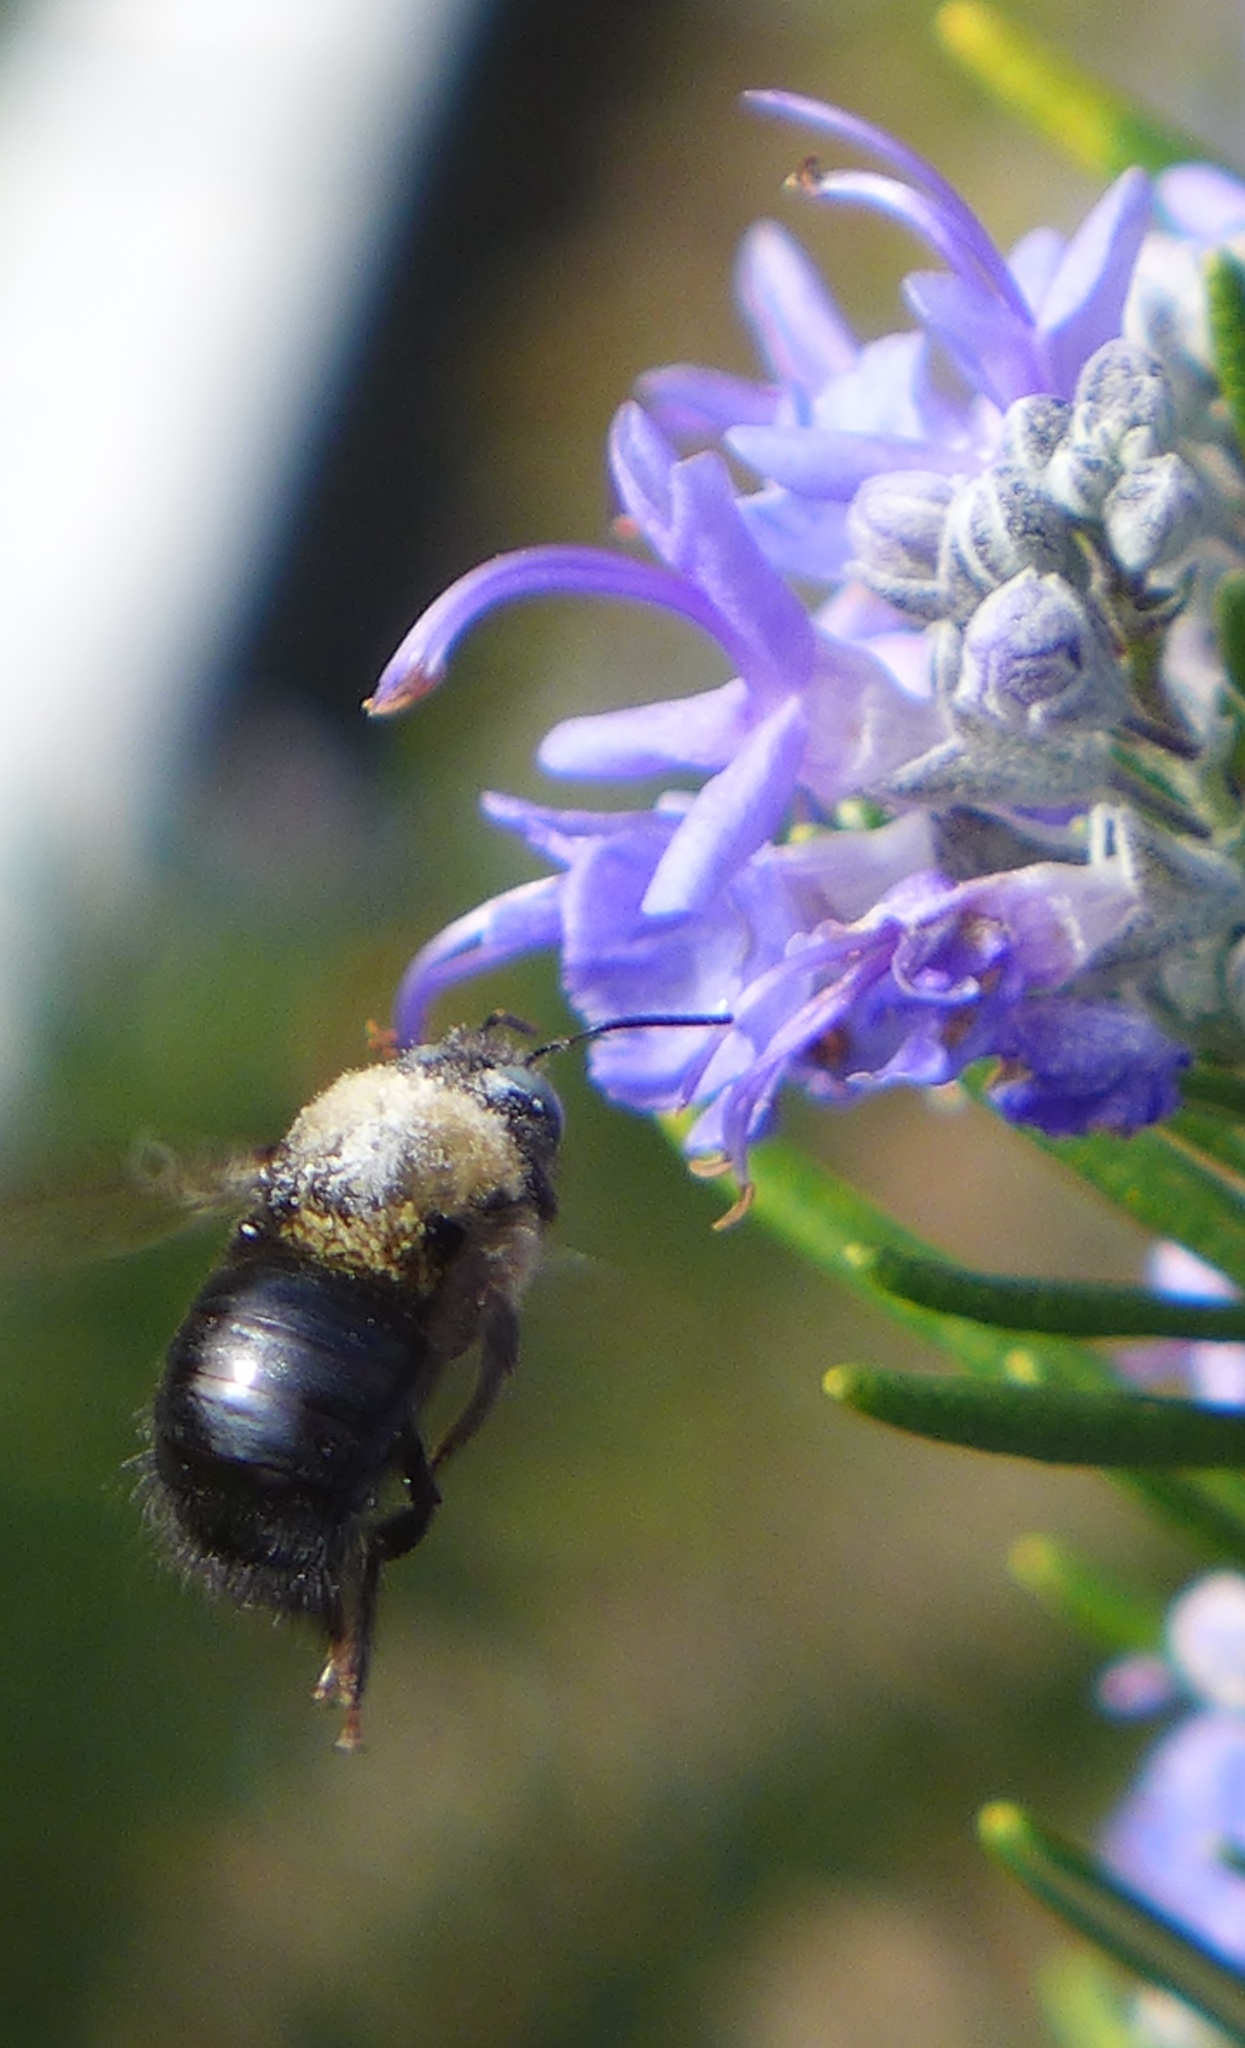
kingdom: Animalia
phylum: Arthropoda
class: Insecta
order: Hymenoptera
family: Apidae
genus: Xylocopa
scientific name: Xylocopa tabaniformis
